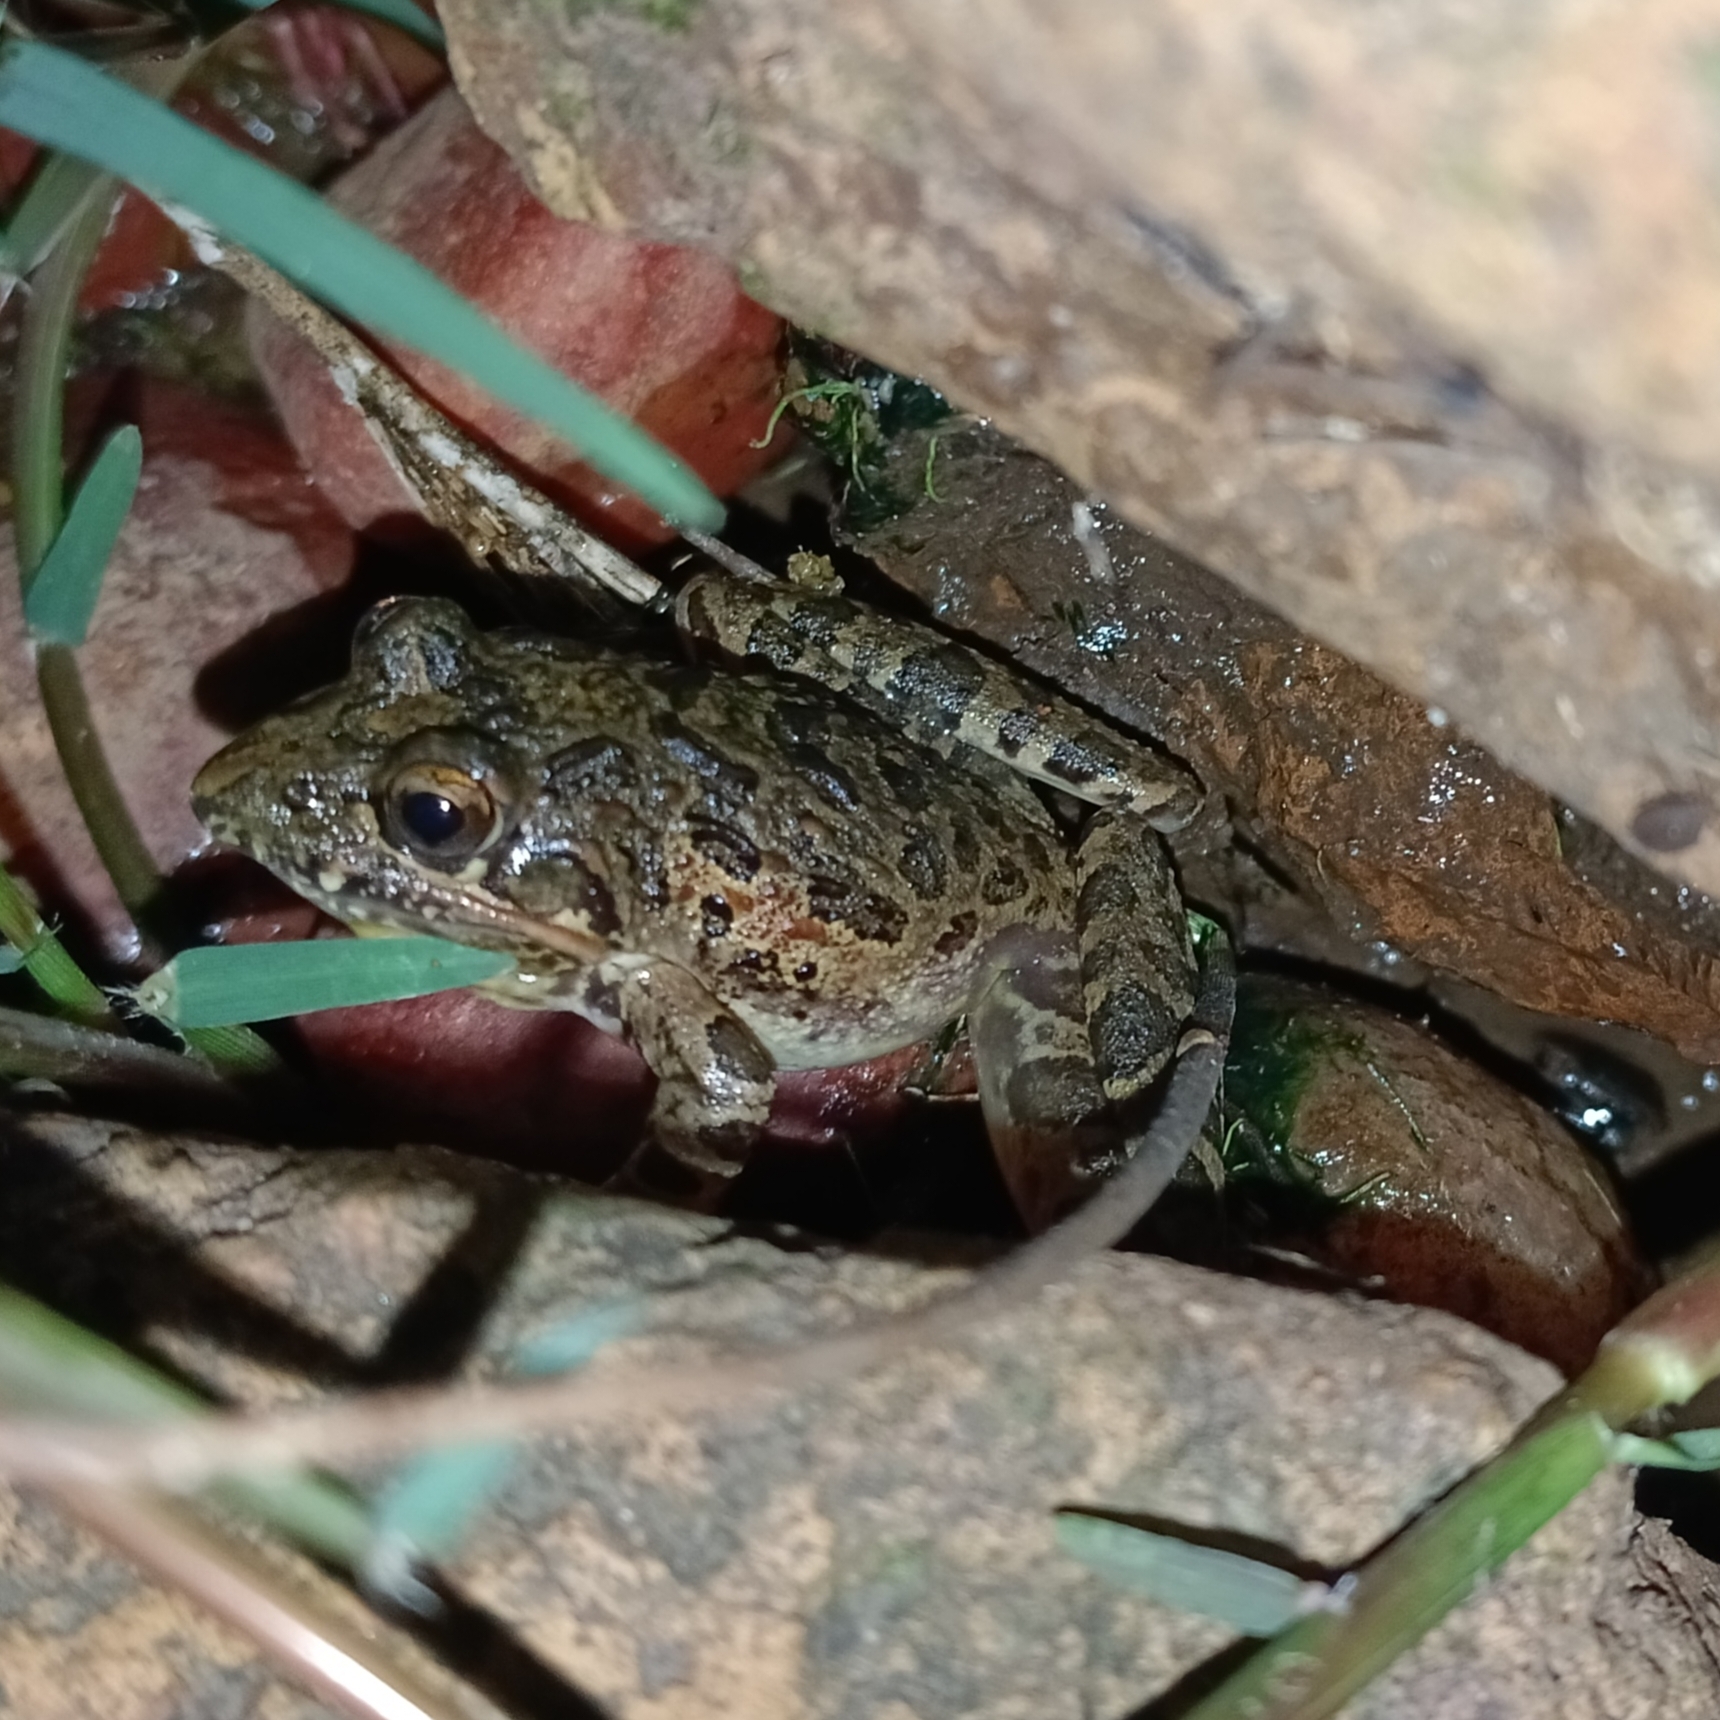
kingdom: Animalia
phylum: Chordata
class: Amphibia
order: Anura
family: Pyxicephalidae
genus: Strongylopus
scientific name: Strongylopus grayii
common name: Gray's stream frog
